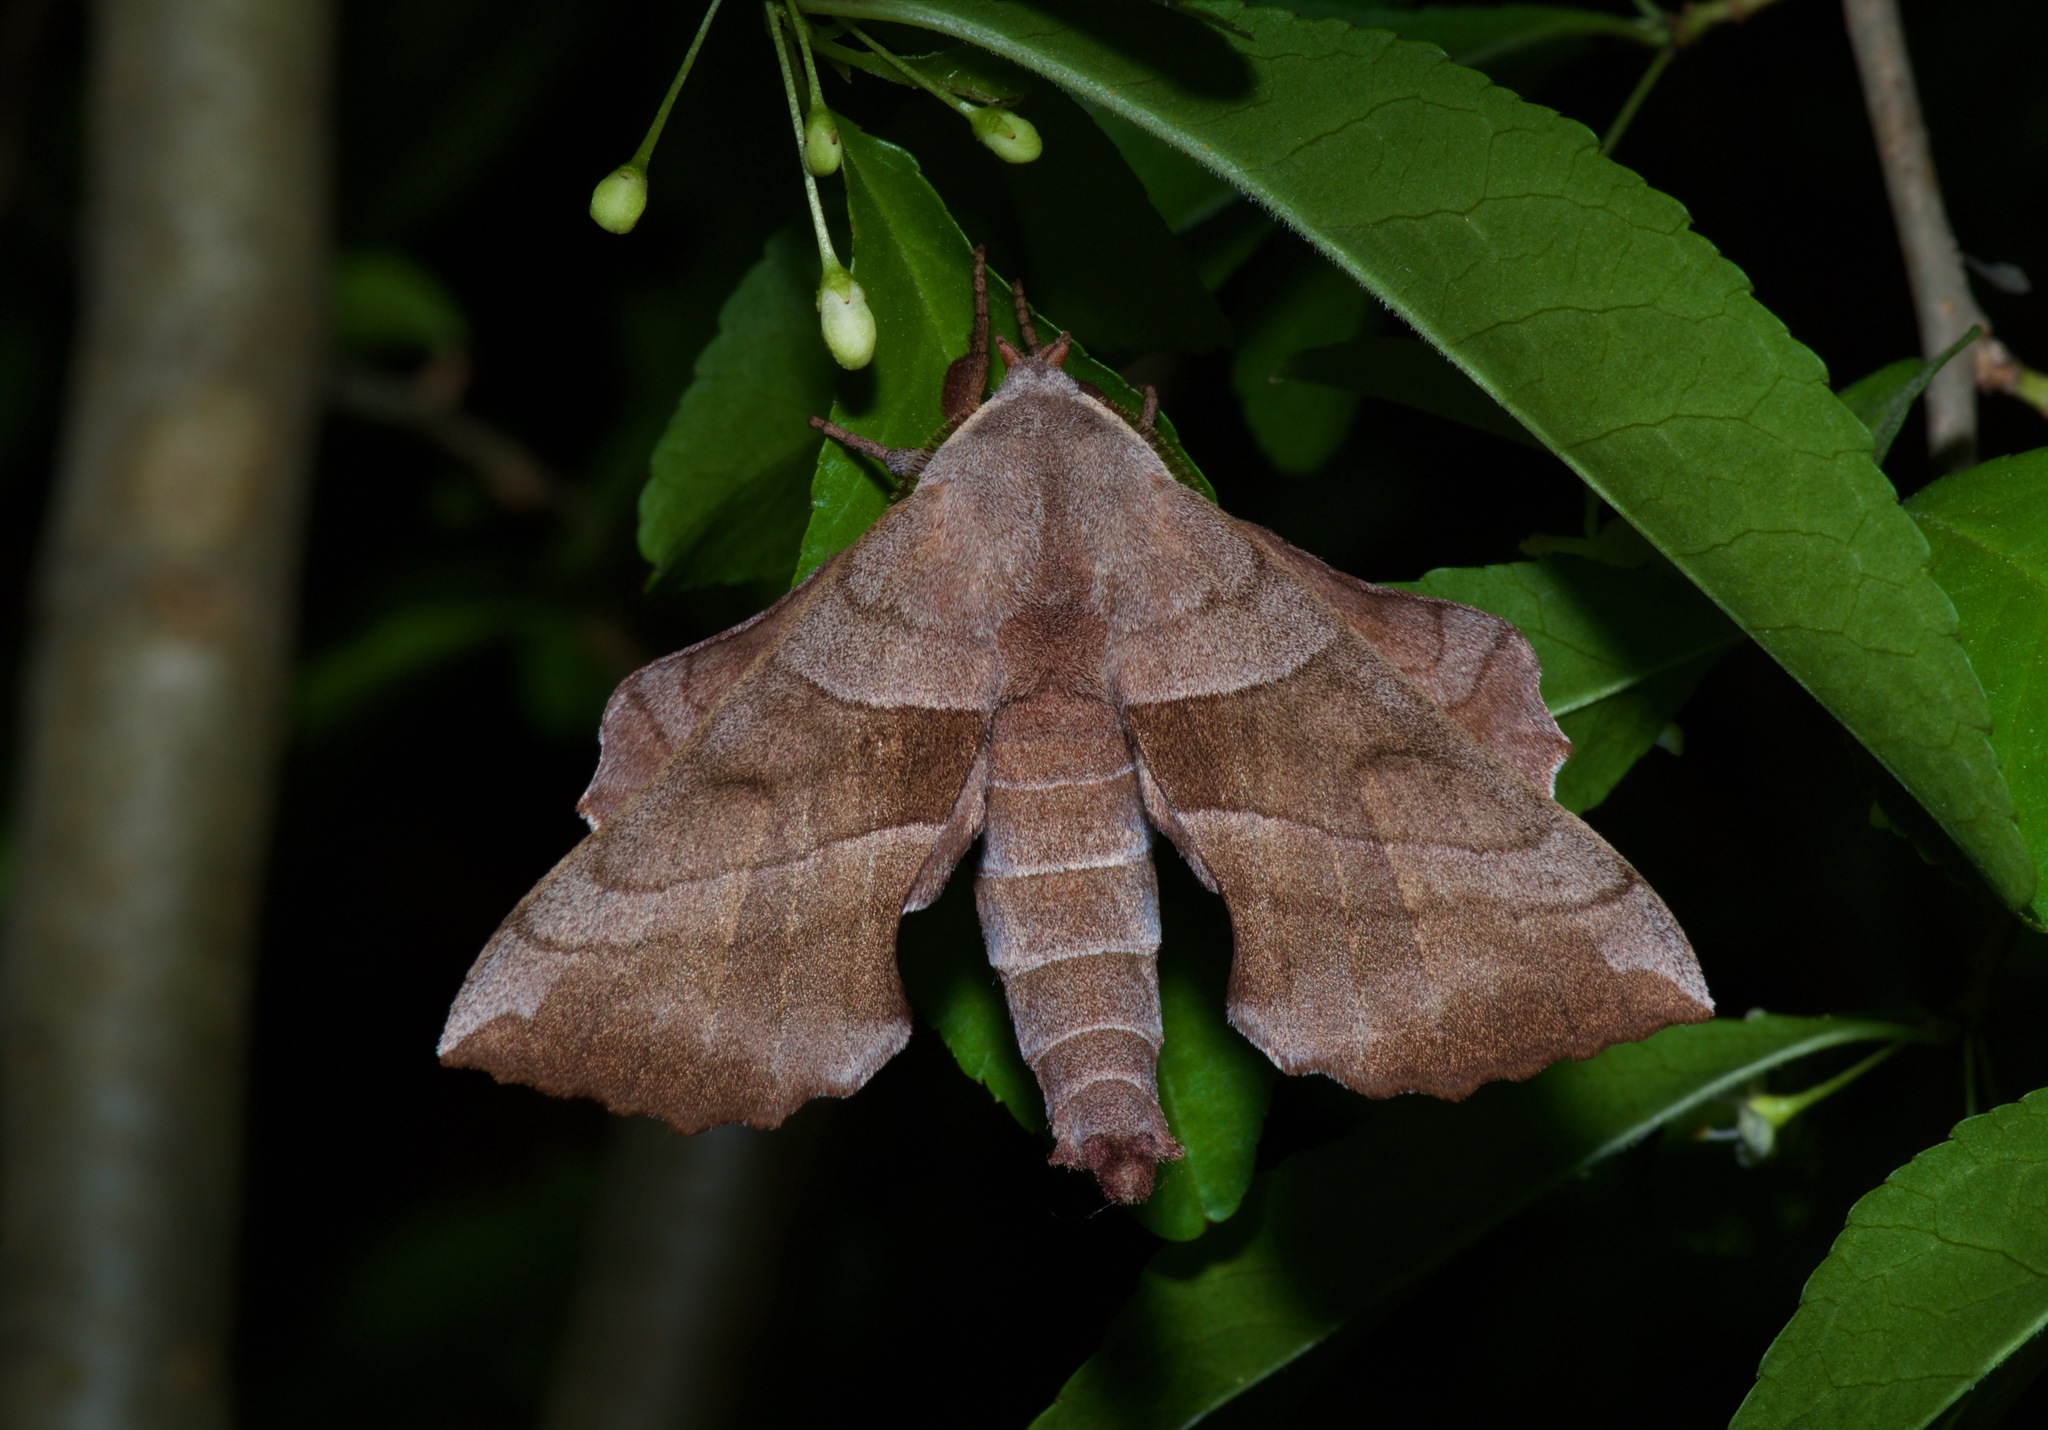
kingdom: Animalia
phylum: Arthropoda
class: Insecta
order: Lepidoptera
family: Sphingidae
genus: Amorpha
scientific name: Amorpha juglandis
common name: Walnut sphinx
